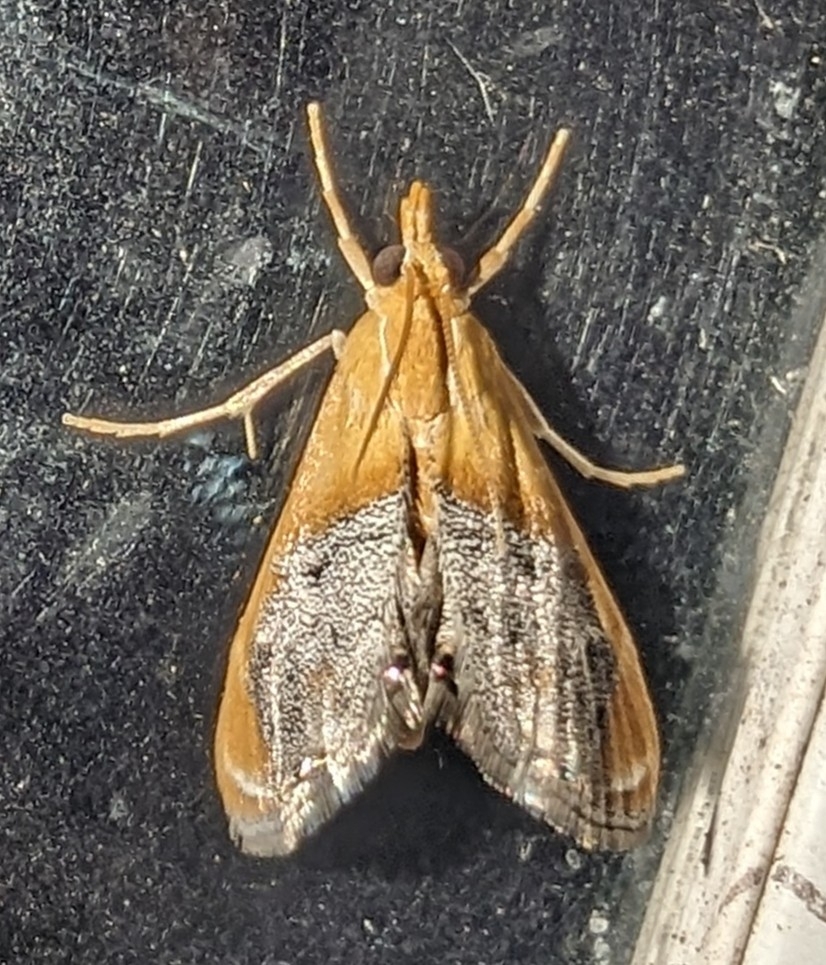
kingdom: Animalia
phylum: Arthropoda
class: Insecta
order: Lepidoptera
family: Crambidae
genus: Chalcoela
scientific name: Chalcoela iphitalis
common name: Sooty-winged chalcoela moth
